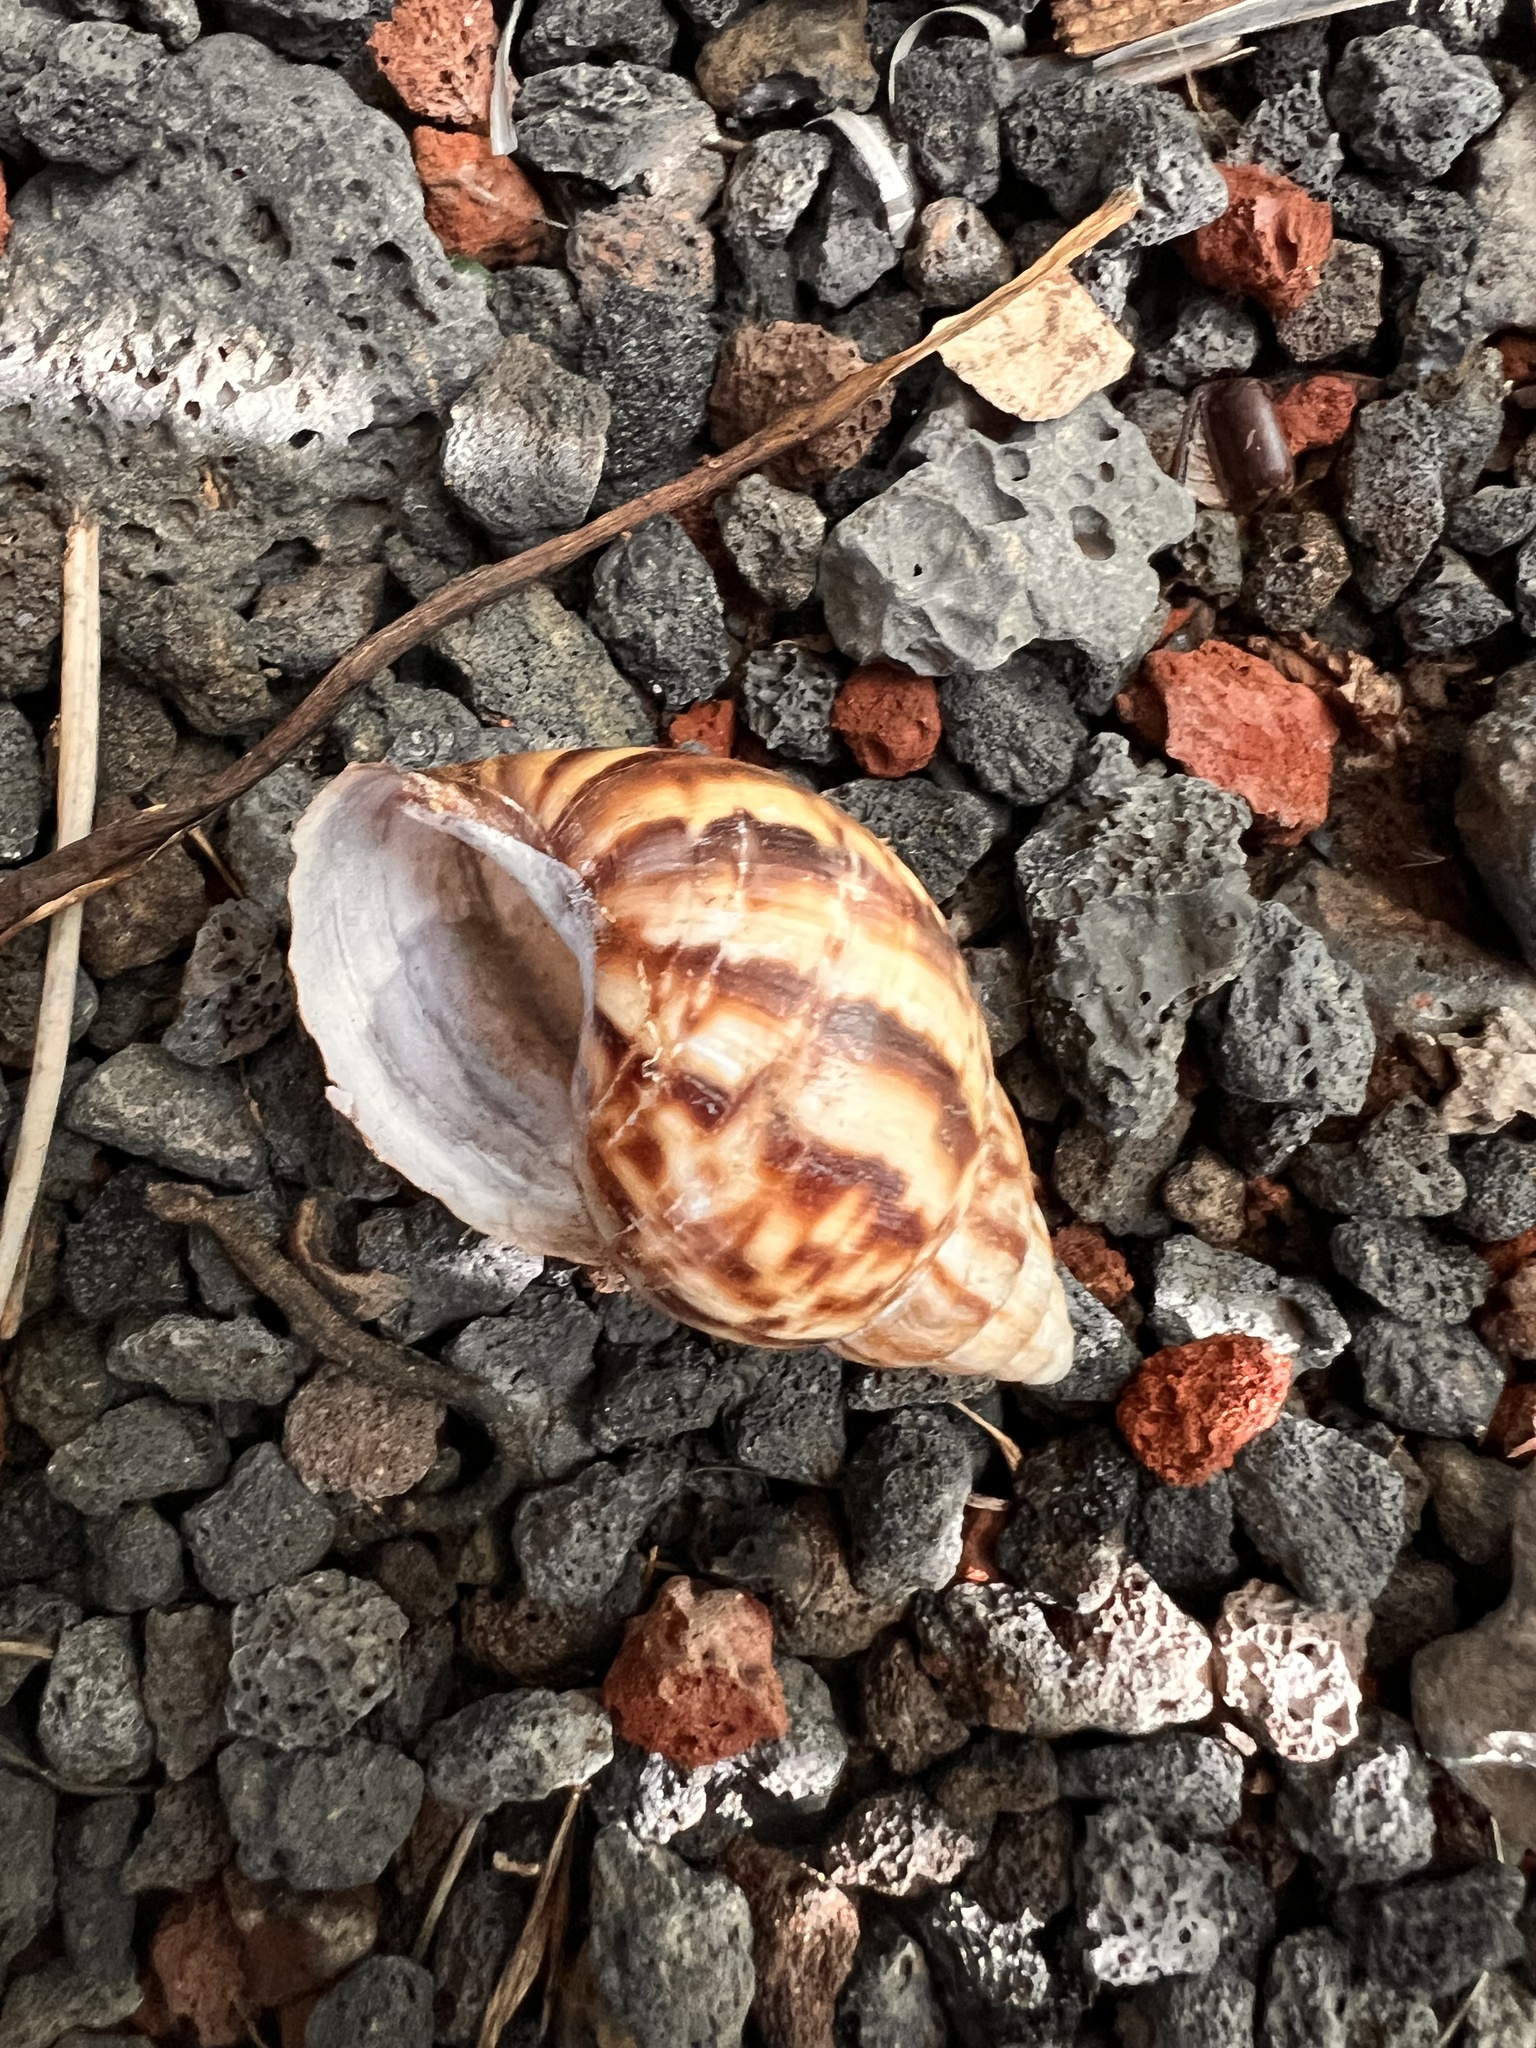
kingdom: Animalia
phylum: Mollusca
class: Gastropoda
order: Stylommatophora
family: Achatinidae
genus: Lissachatina
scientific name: Lissachatina fulica
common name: Giant african snail
